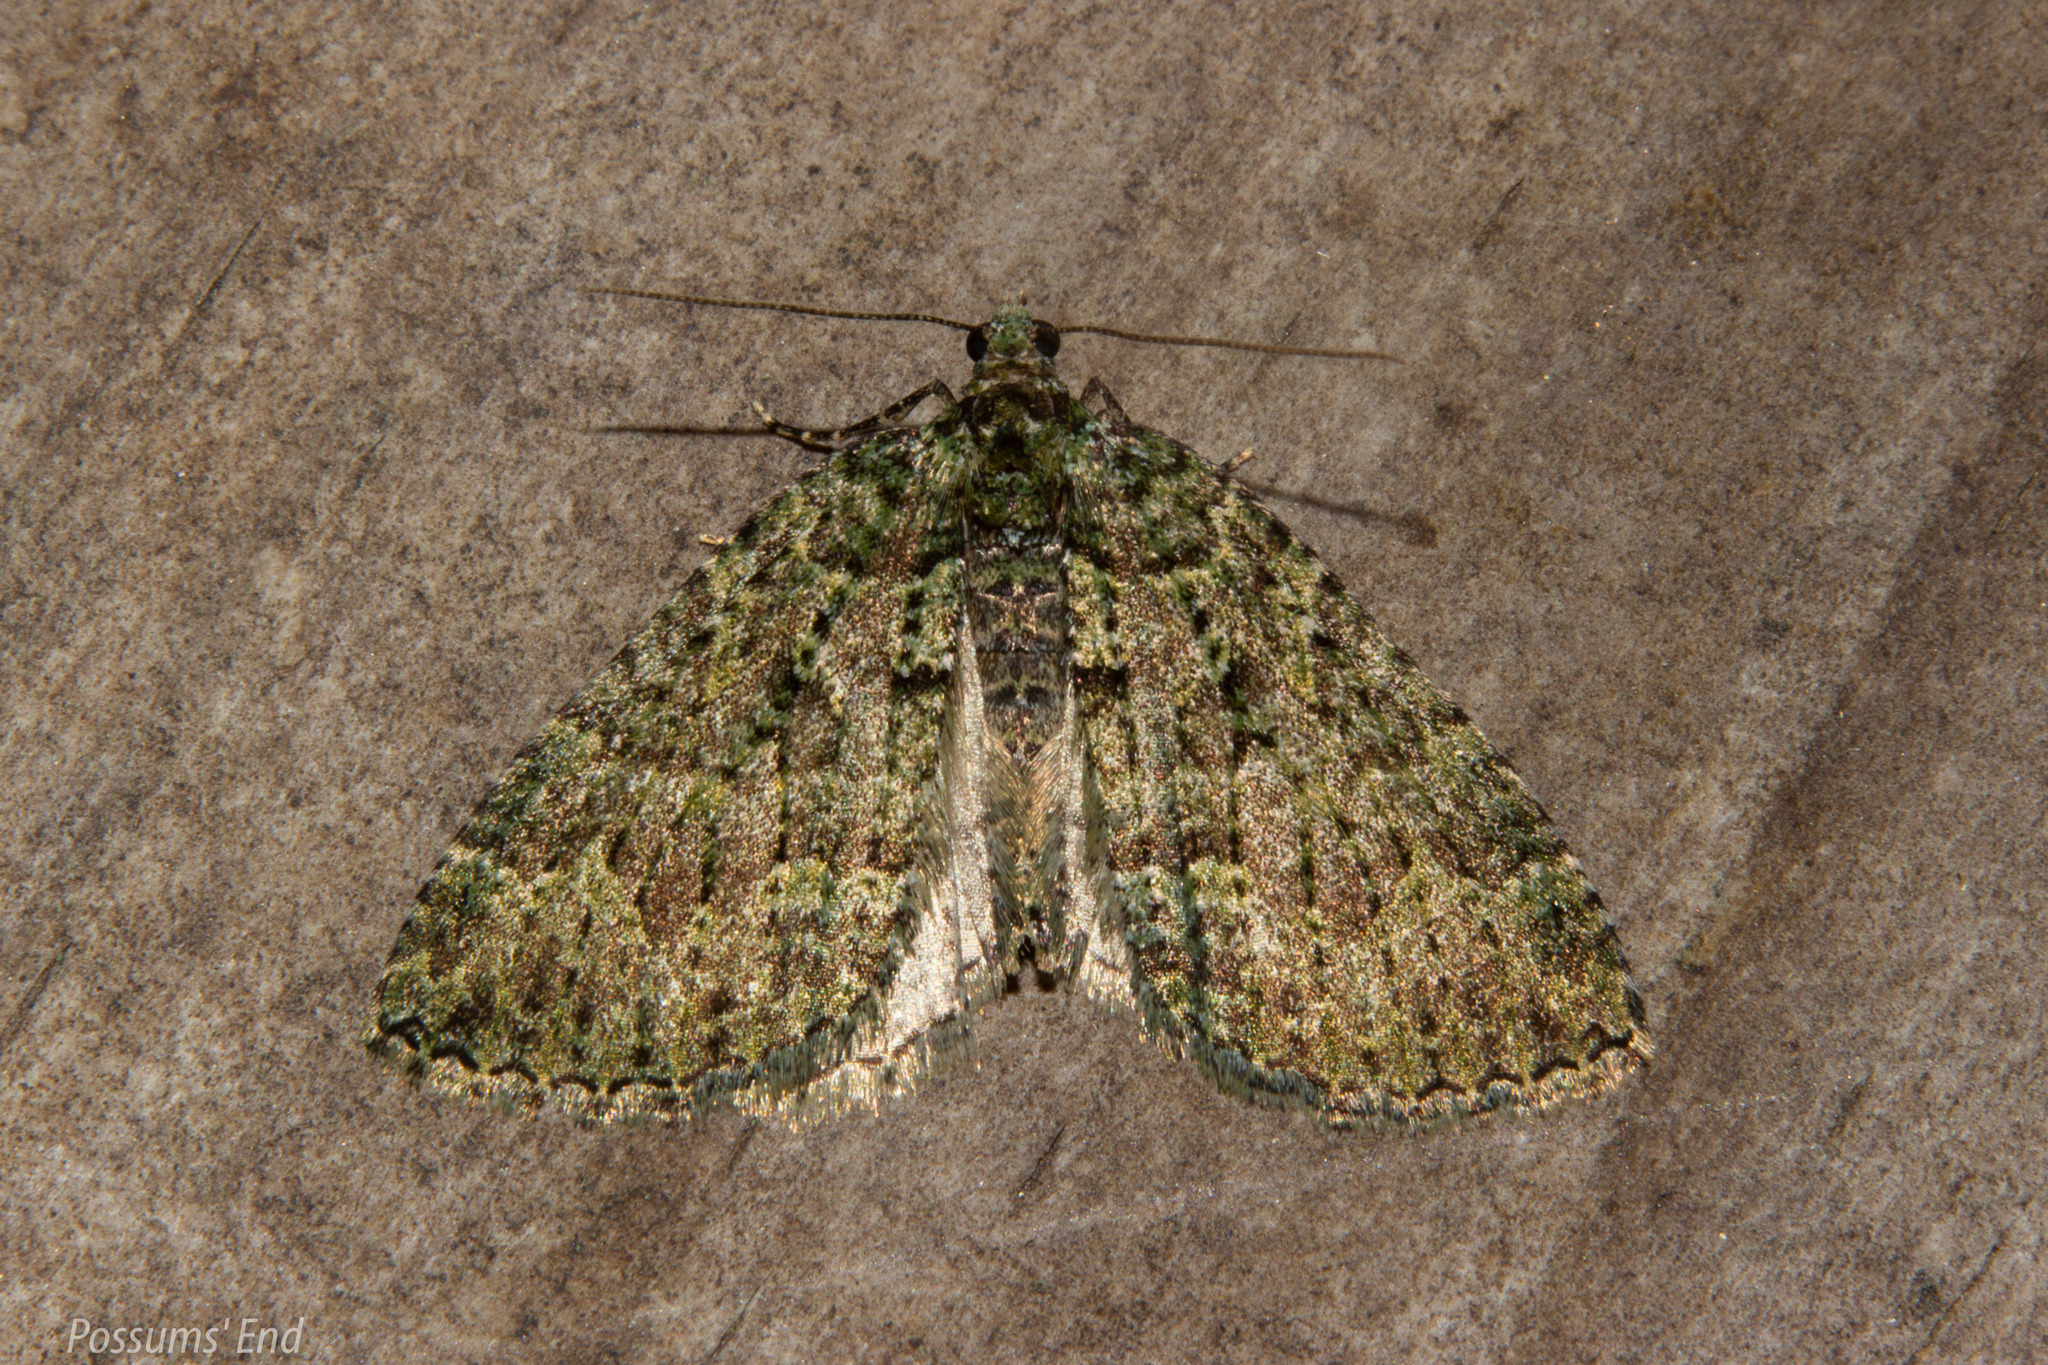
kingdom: Animalia
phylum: Arthropoda
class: Insecta
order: Lepidoptera
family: Geometridae
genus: Austrocidaria
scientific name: Austrocidaria callichlora
